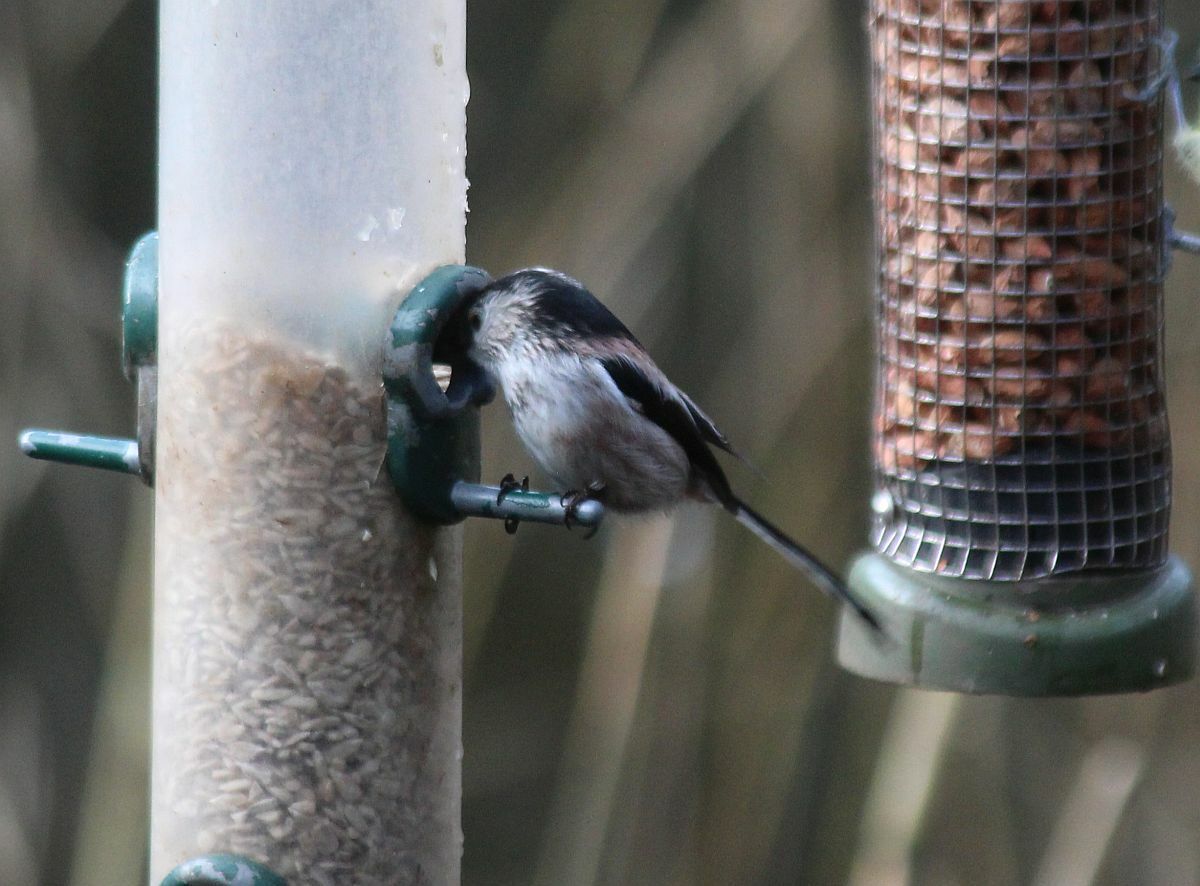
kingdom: Animalia
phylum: Chordata
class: Aves
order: Passeriformes
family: Aegithalidae
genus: Aegithalos
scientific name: Aegithalos caudatus
